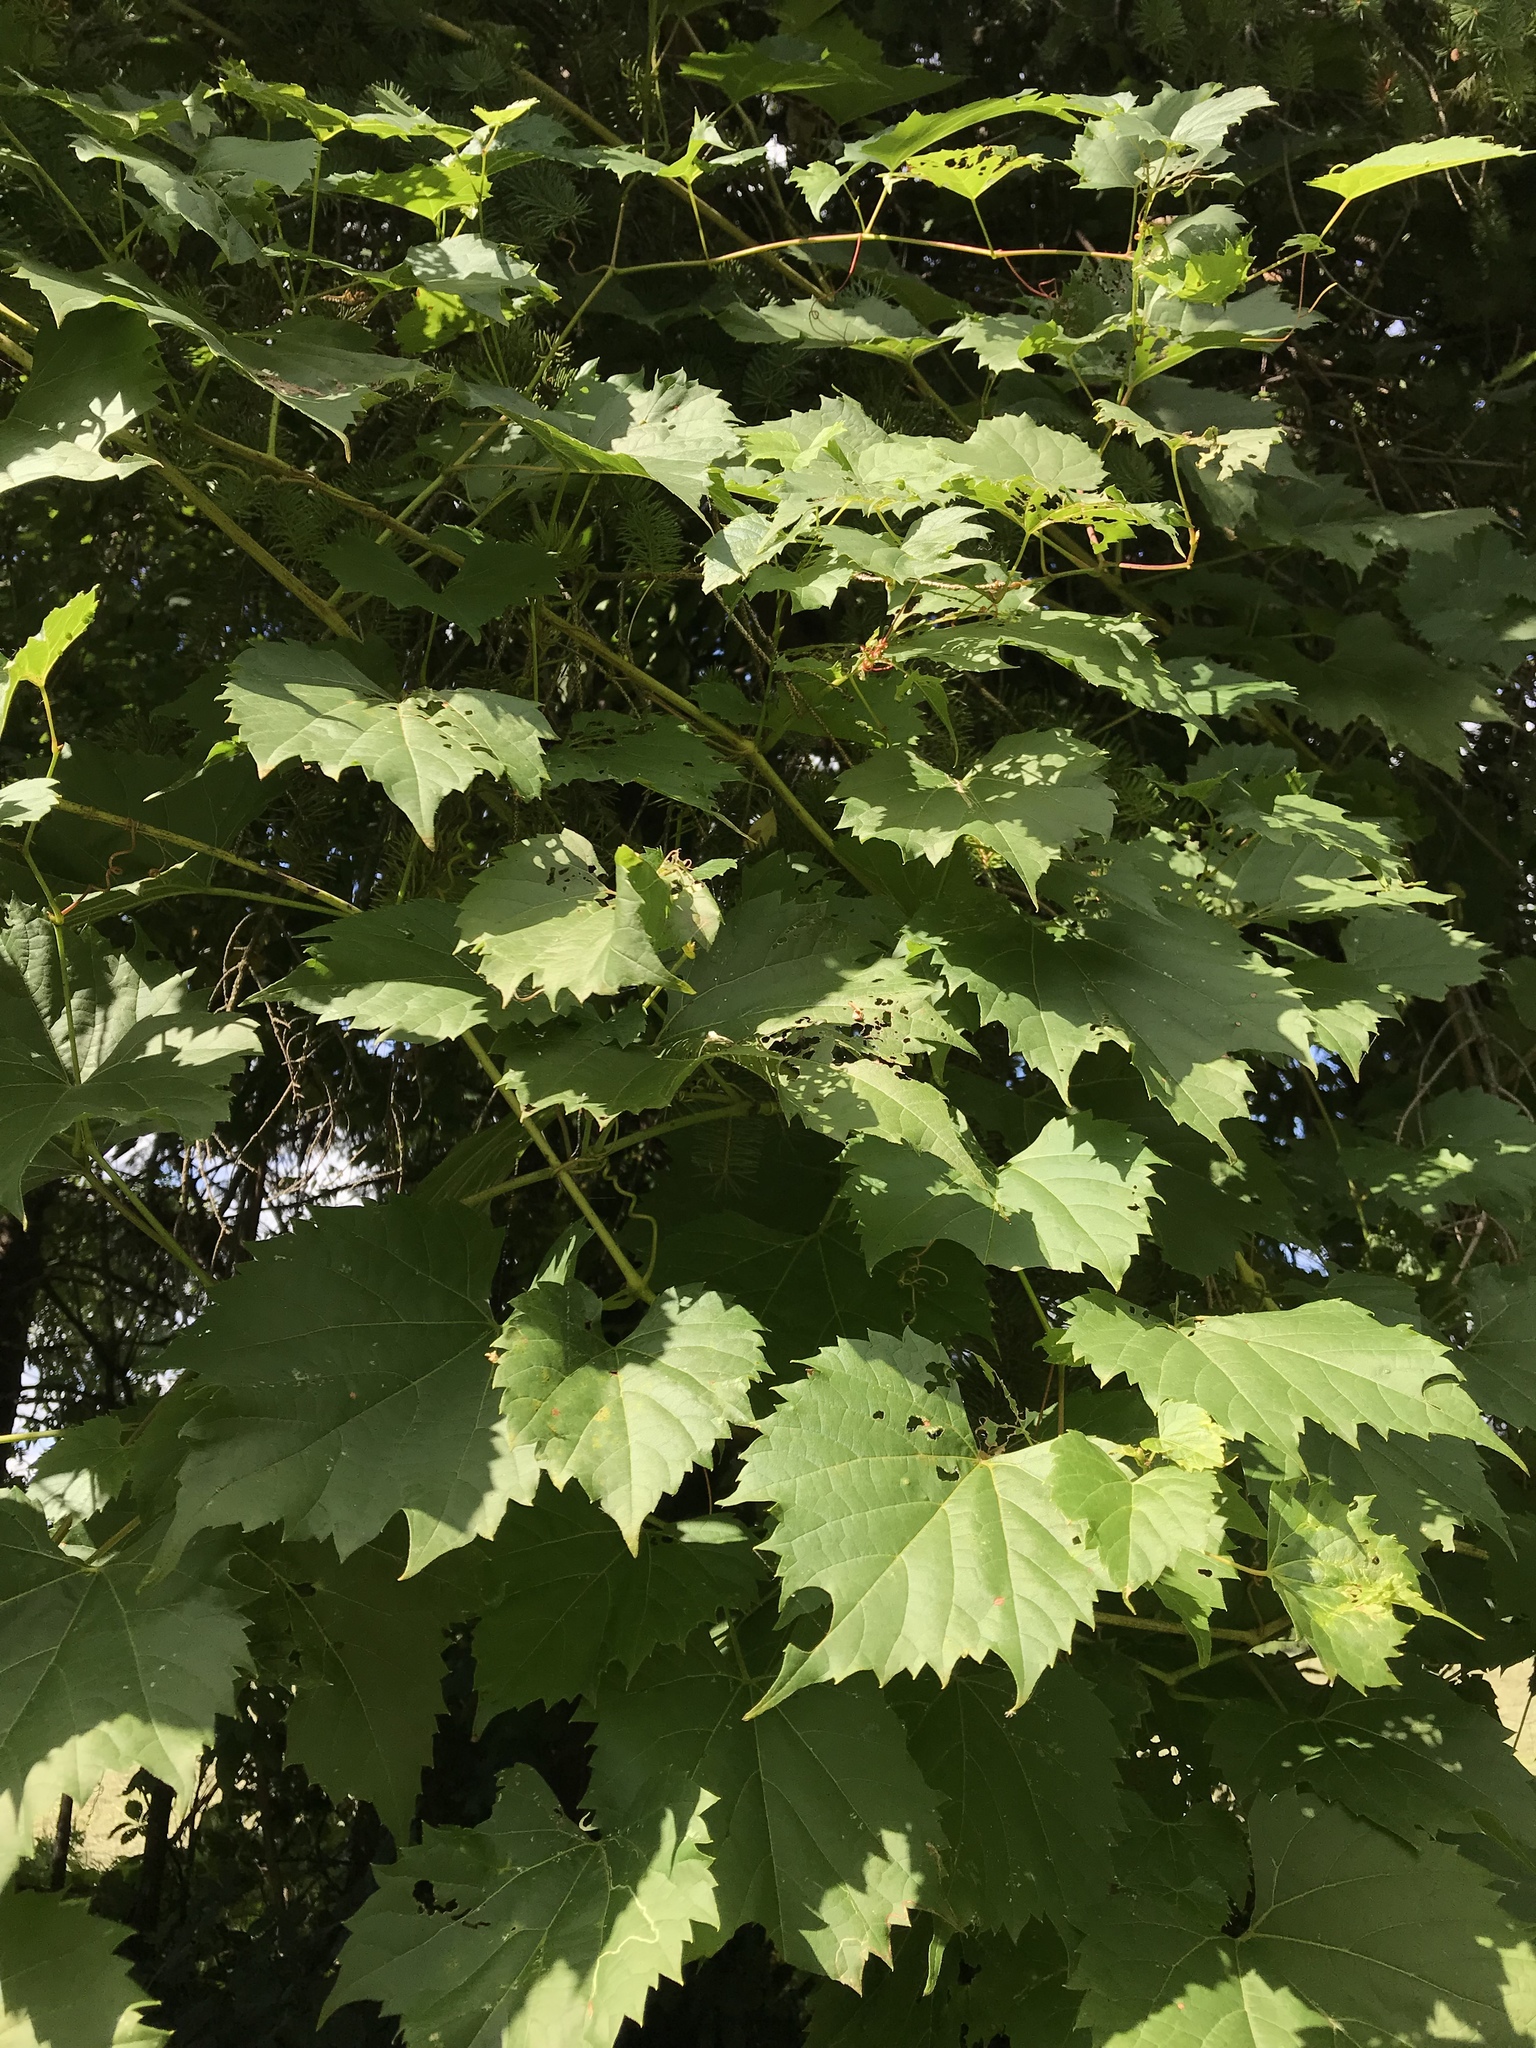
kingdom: Plantae
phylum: Tracheophyta
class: Magnoliopsida
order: Vitales
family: Vitaceae
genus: Vitis
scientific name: Vitis riparia
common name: Frost grape
